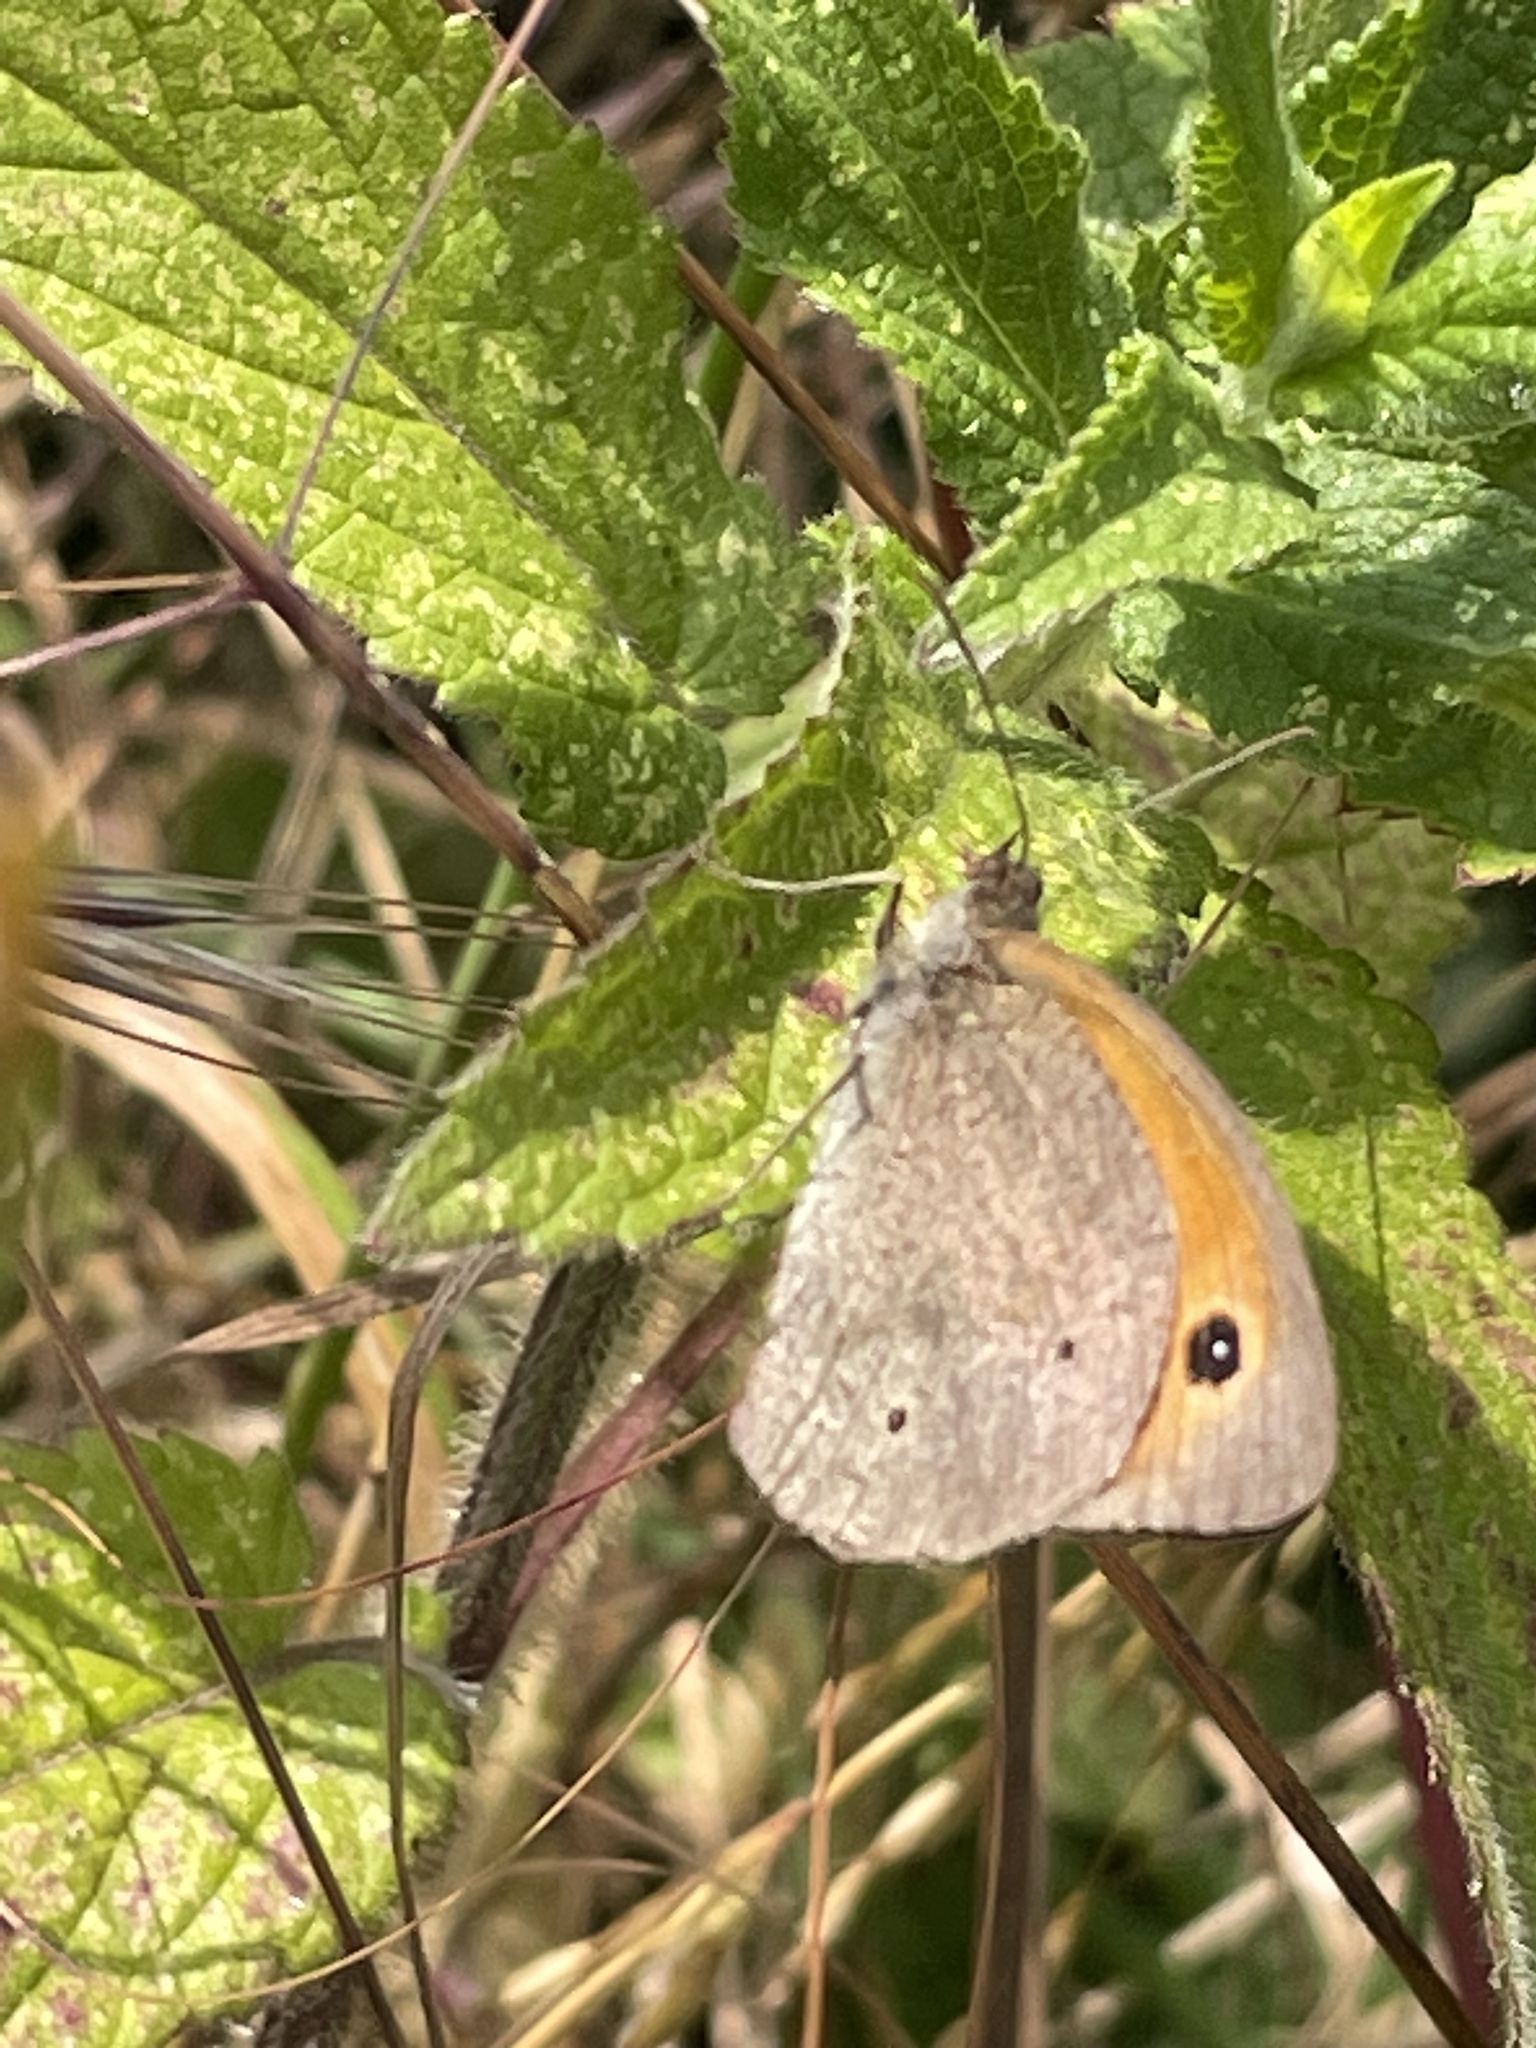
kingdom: Animalia
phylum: Arthropoda
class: Insecta
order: Lepidoptera
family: Nymphalidae
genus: Maniola
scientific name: Maniola jurtina
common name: Meadow brown
